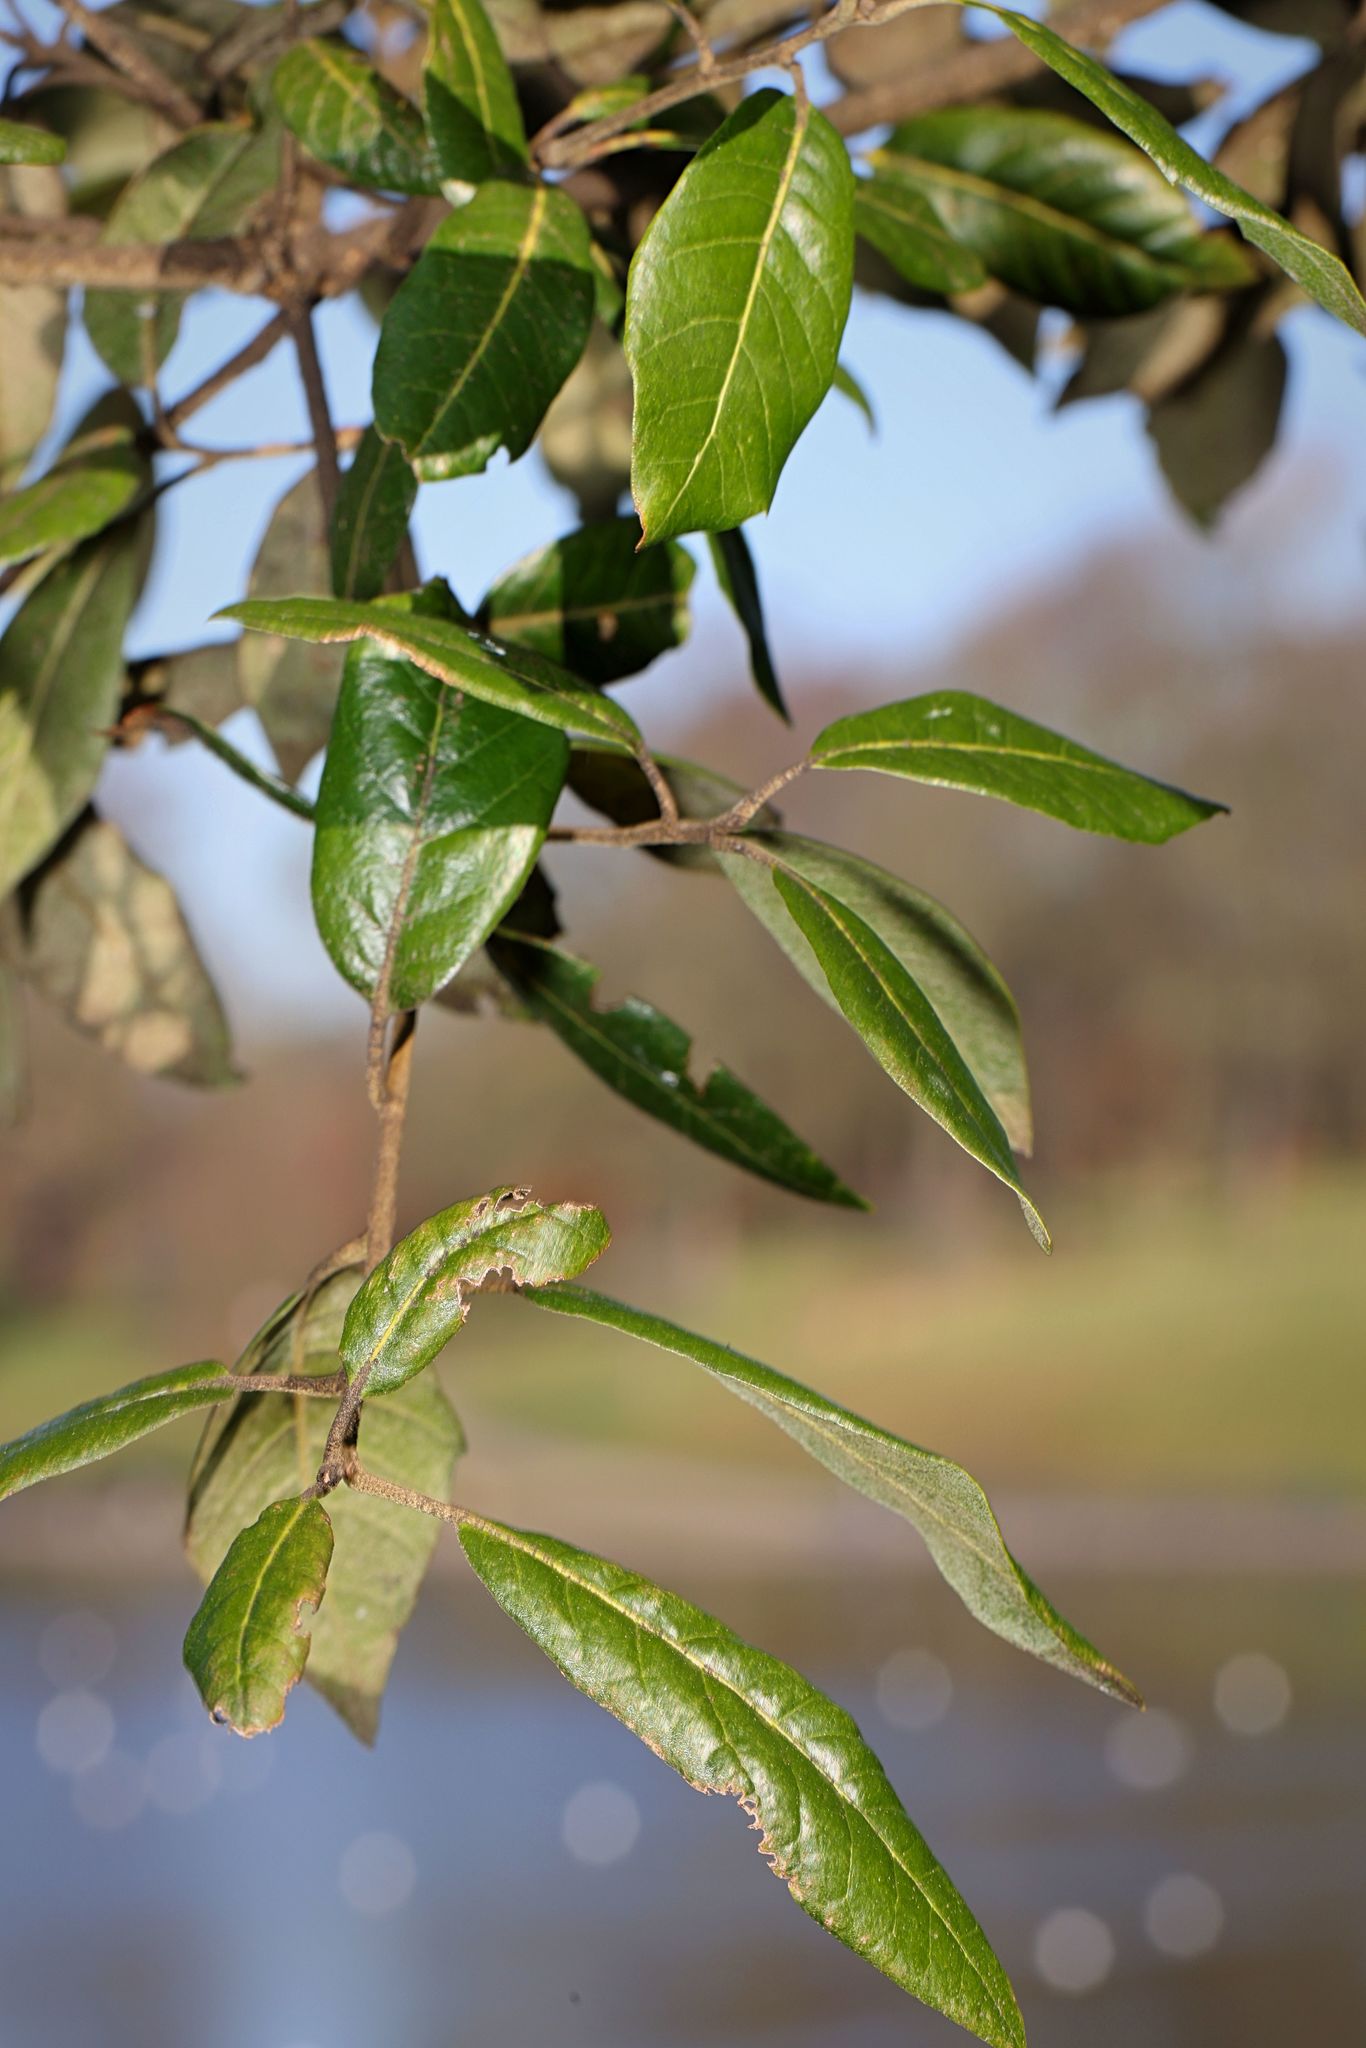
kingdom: Plantae
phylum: Tracheophyta
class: Magnoliopsida
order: Fagales
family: Fagaceae
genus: Quercus
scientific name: Quercus ilex
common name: Evergreen oak
